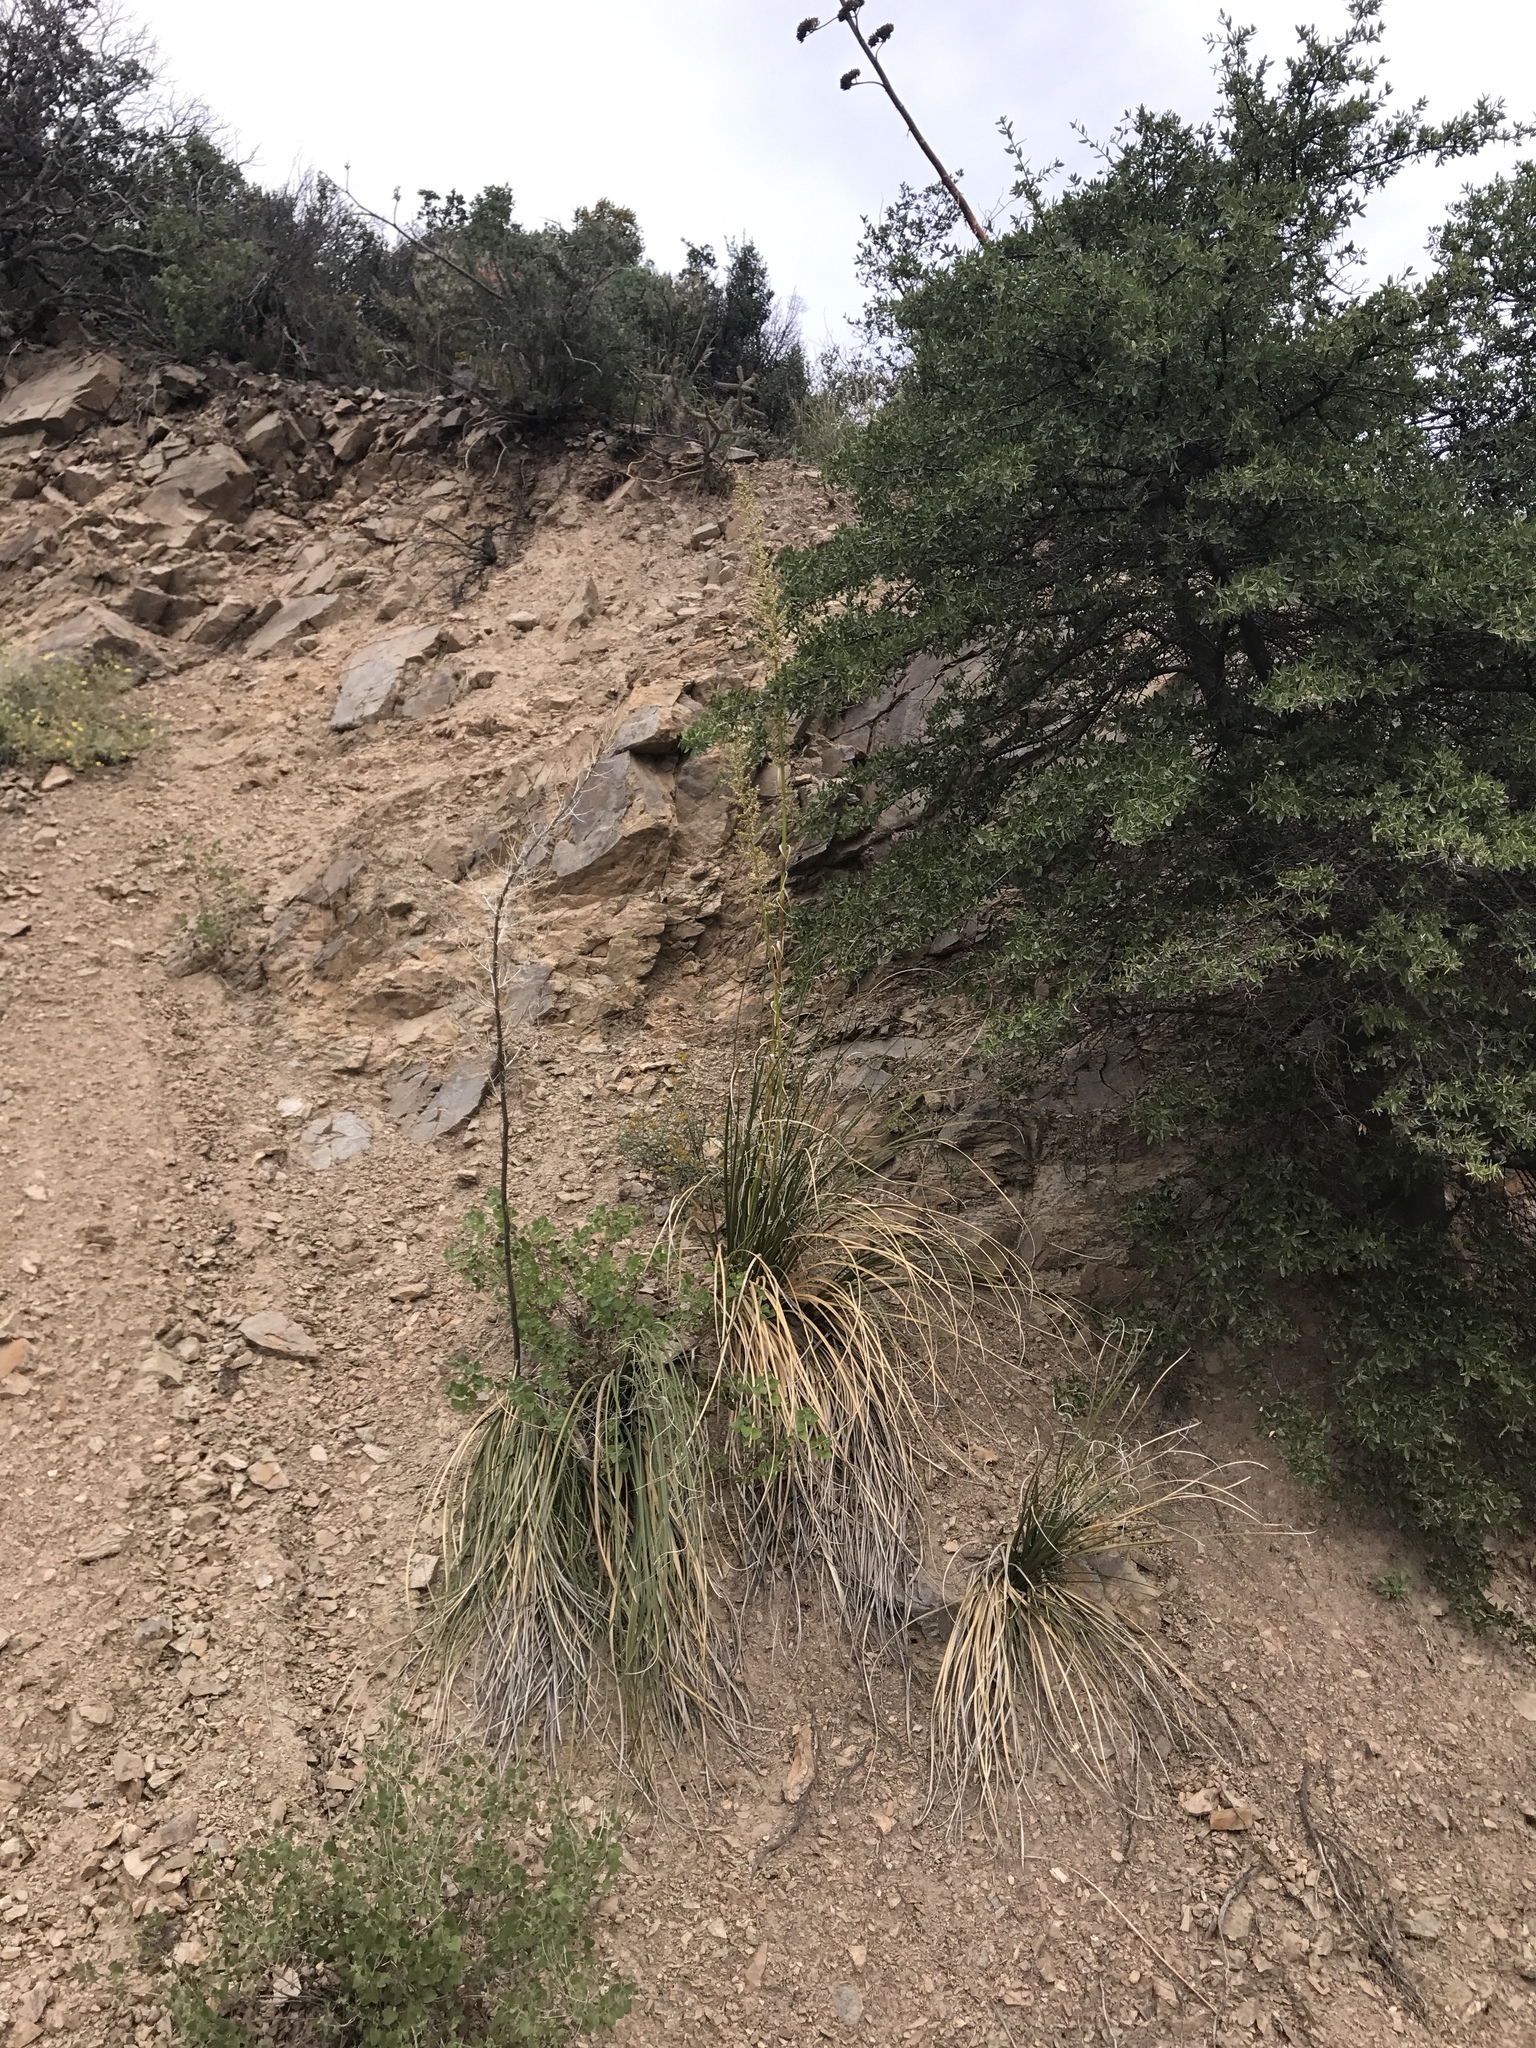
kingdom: Plantae
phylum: Tracheophyta
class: Liliopsida
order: Asparagales
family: Asparagaceae
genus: Nolina
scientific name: Nolina microcarpa
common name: Bear-grass
